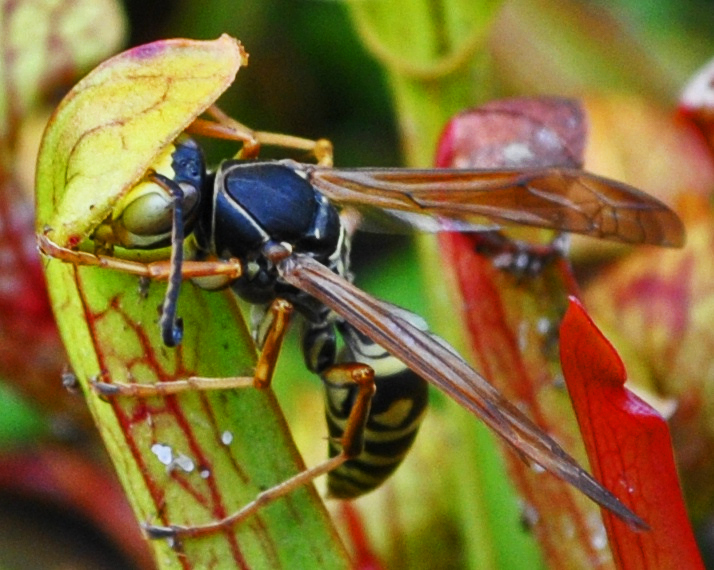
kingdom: Animalia
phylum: Arthropoda
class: Insecta
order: Hymenoptera
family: Eumenidae
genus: Polistes
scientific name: Polistes fuscatus
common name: Dark paper wasp
